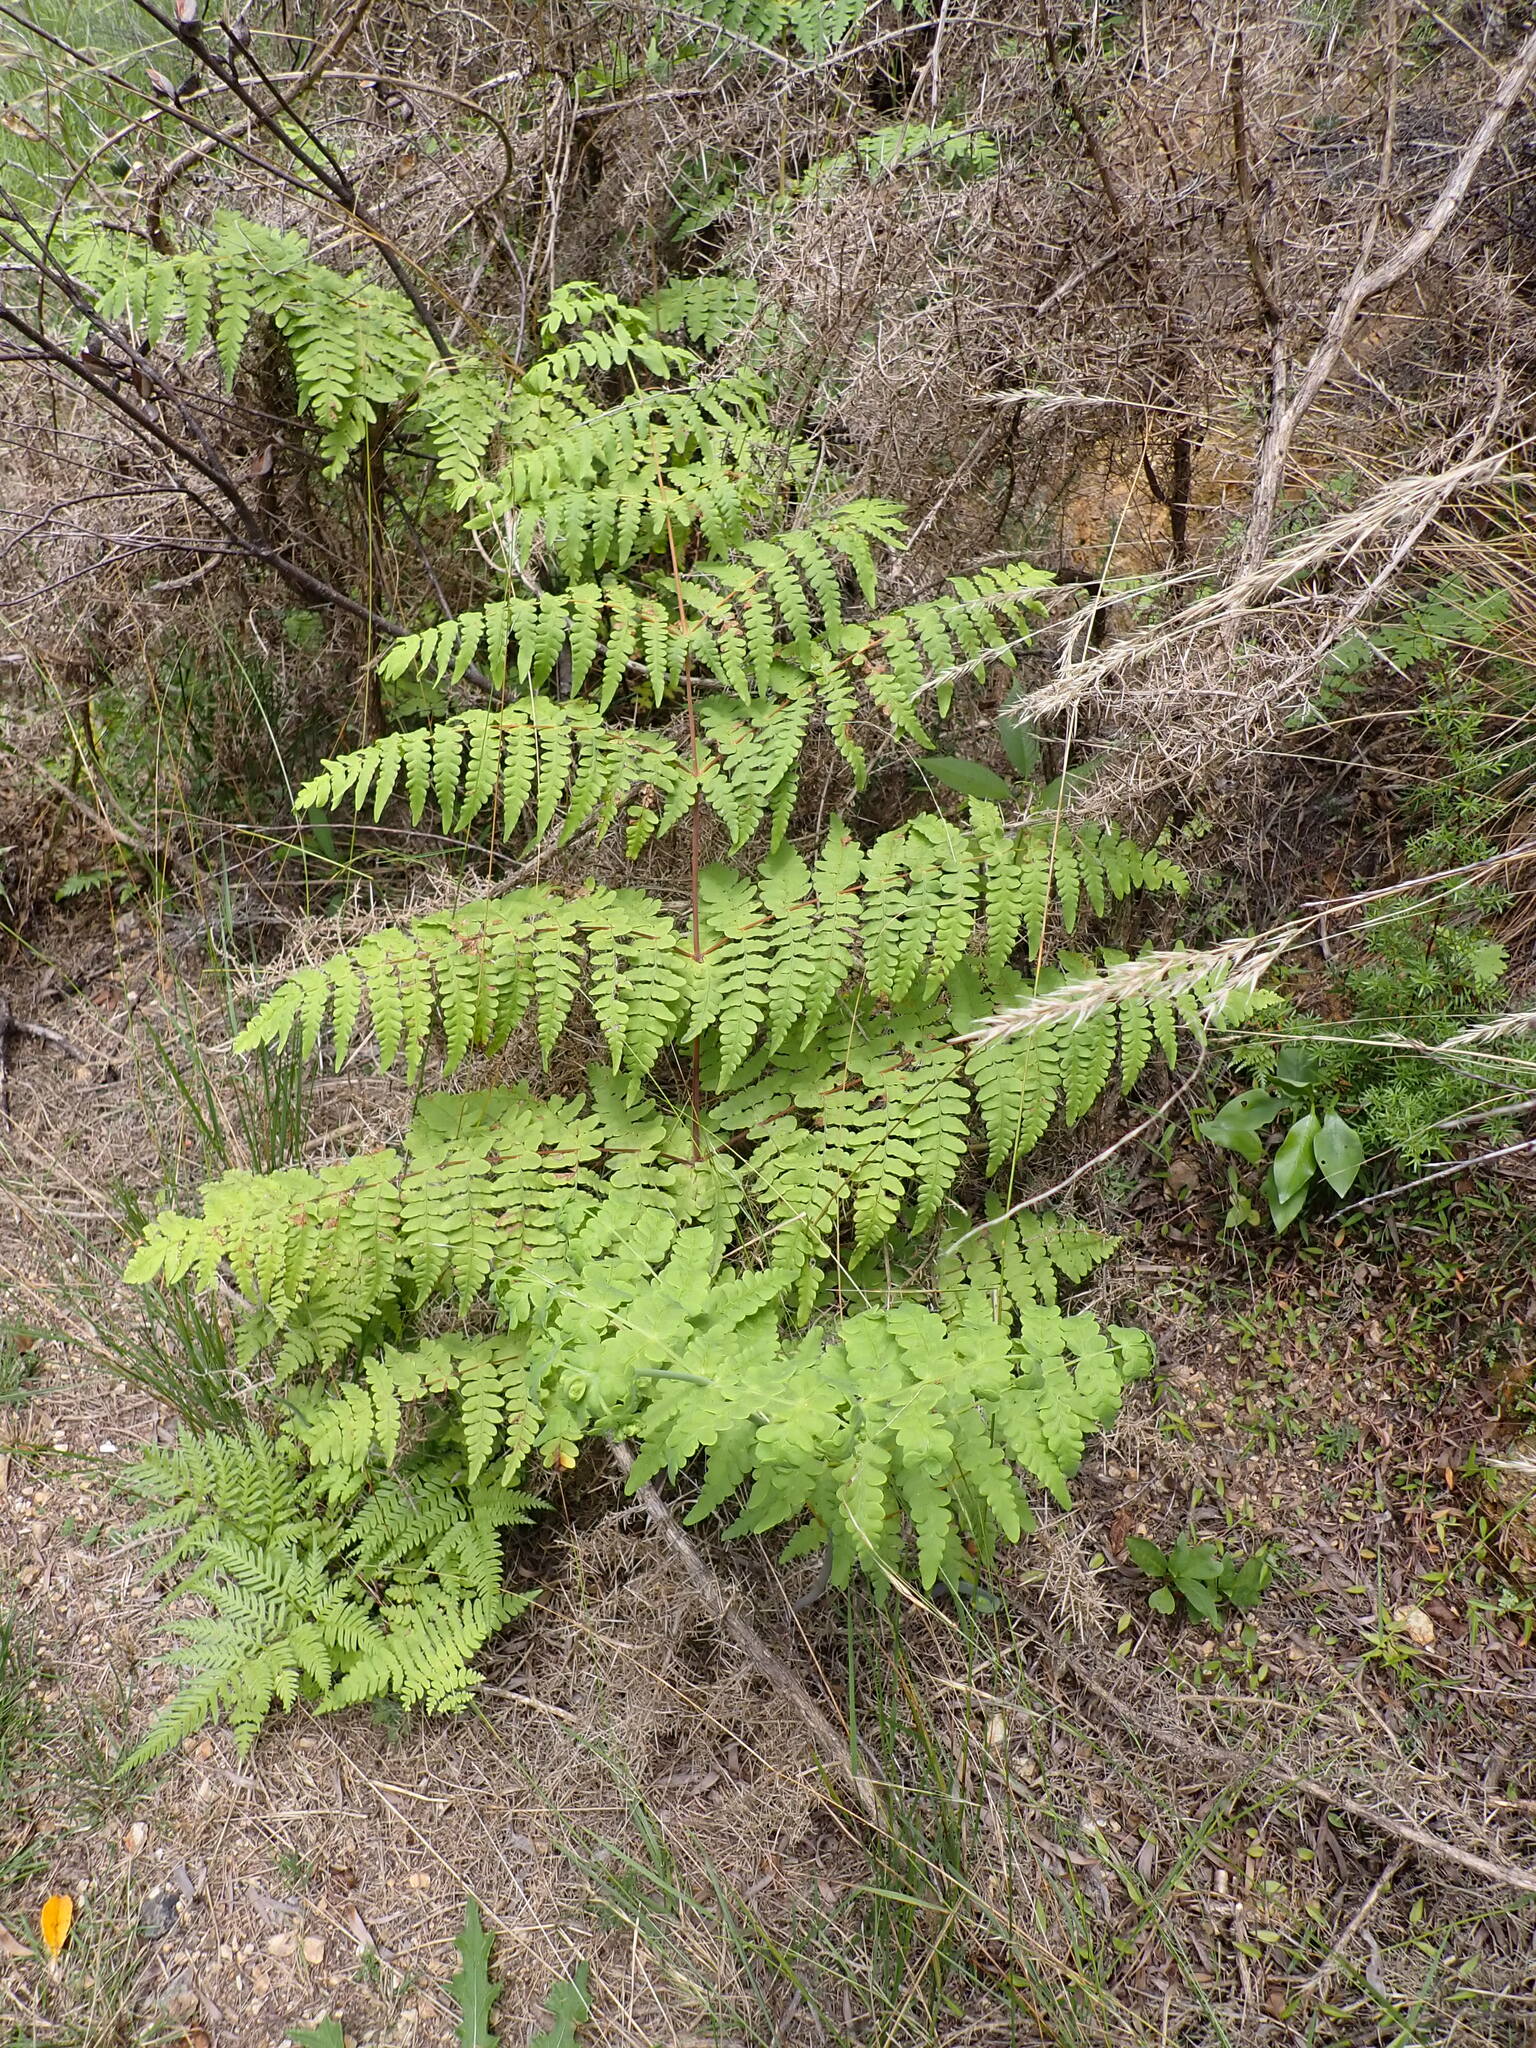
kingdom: Plantae
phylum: Tracheophyta
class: Polypodiopsida
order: Polypodiales
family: Dennstaedtiaceae
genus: Histiopteris
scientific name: Histiopteris incisa
